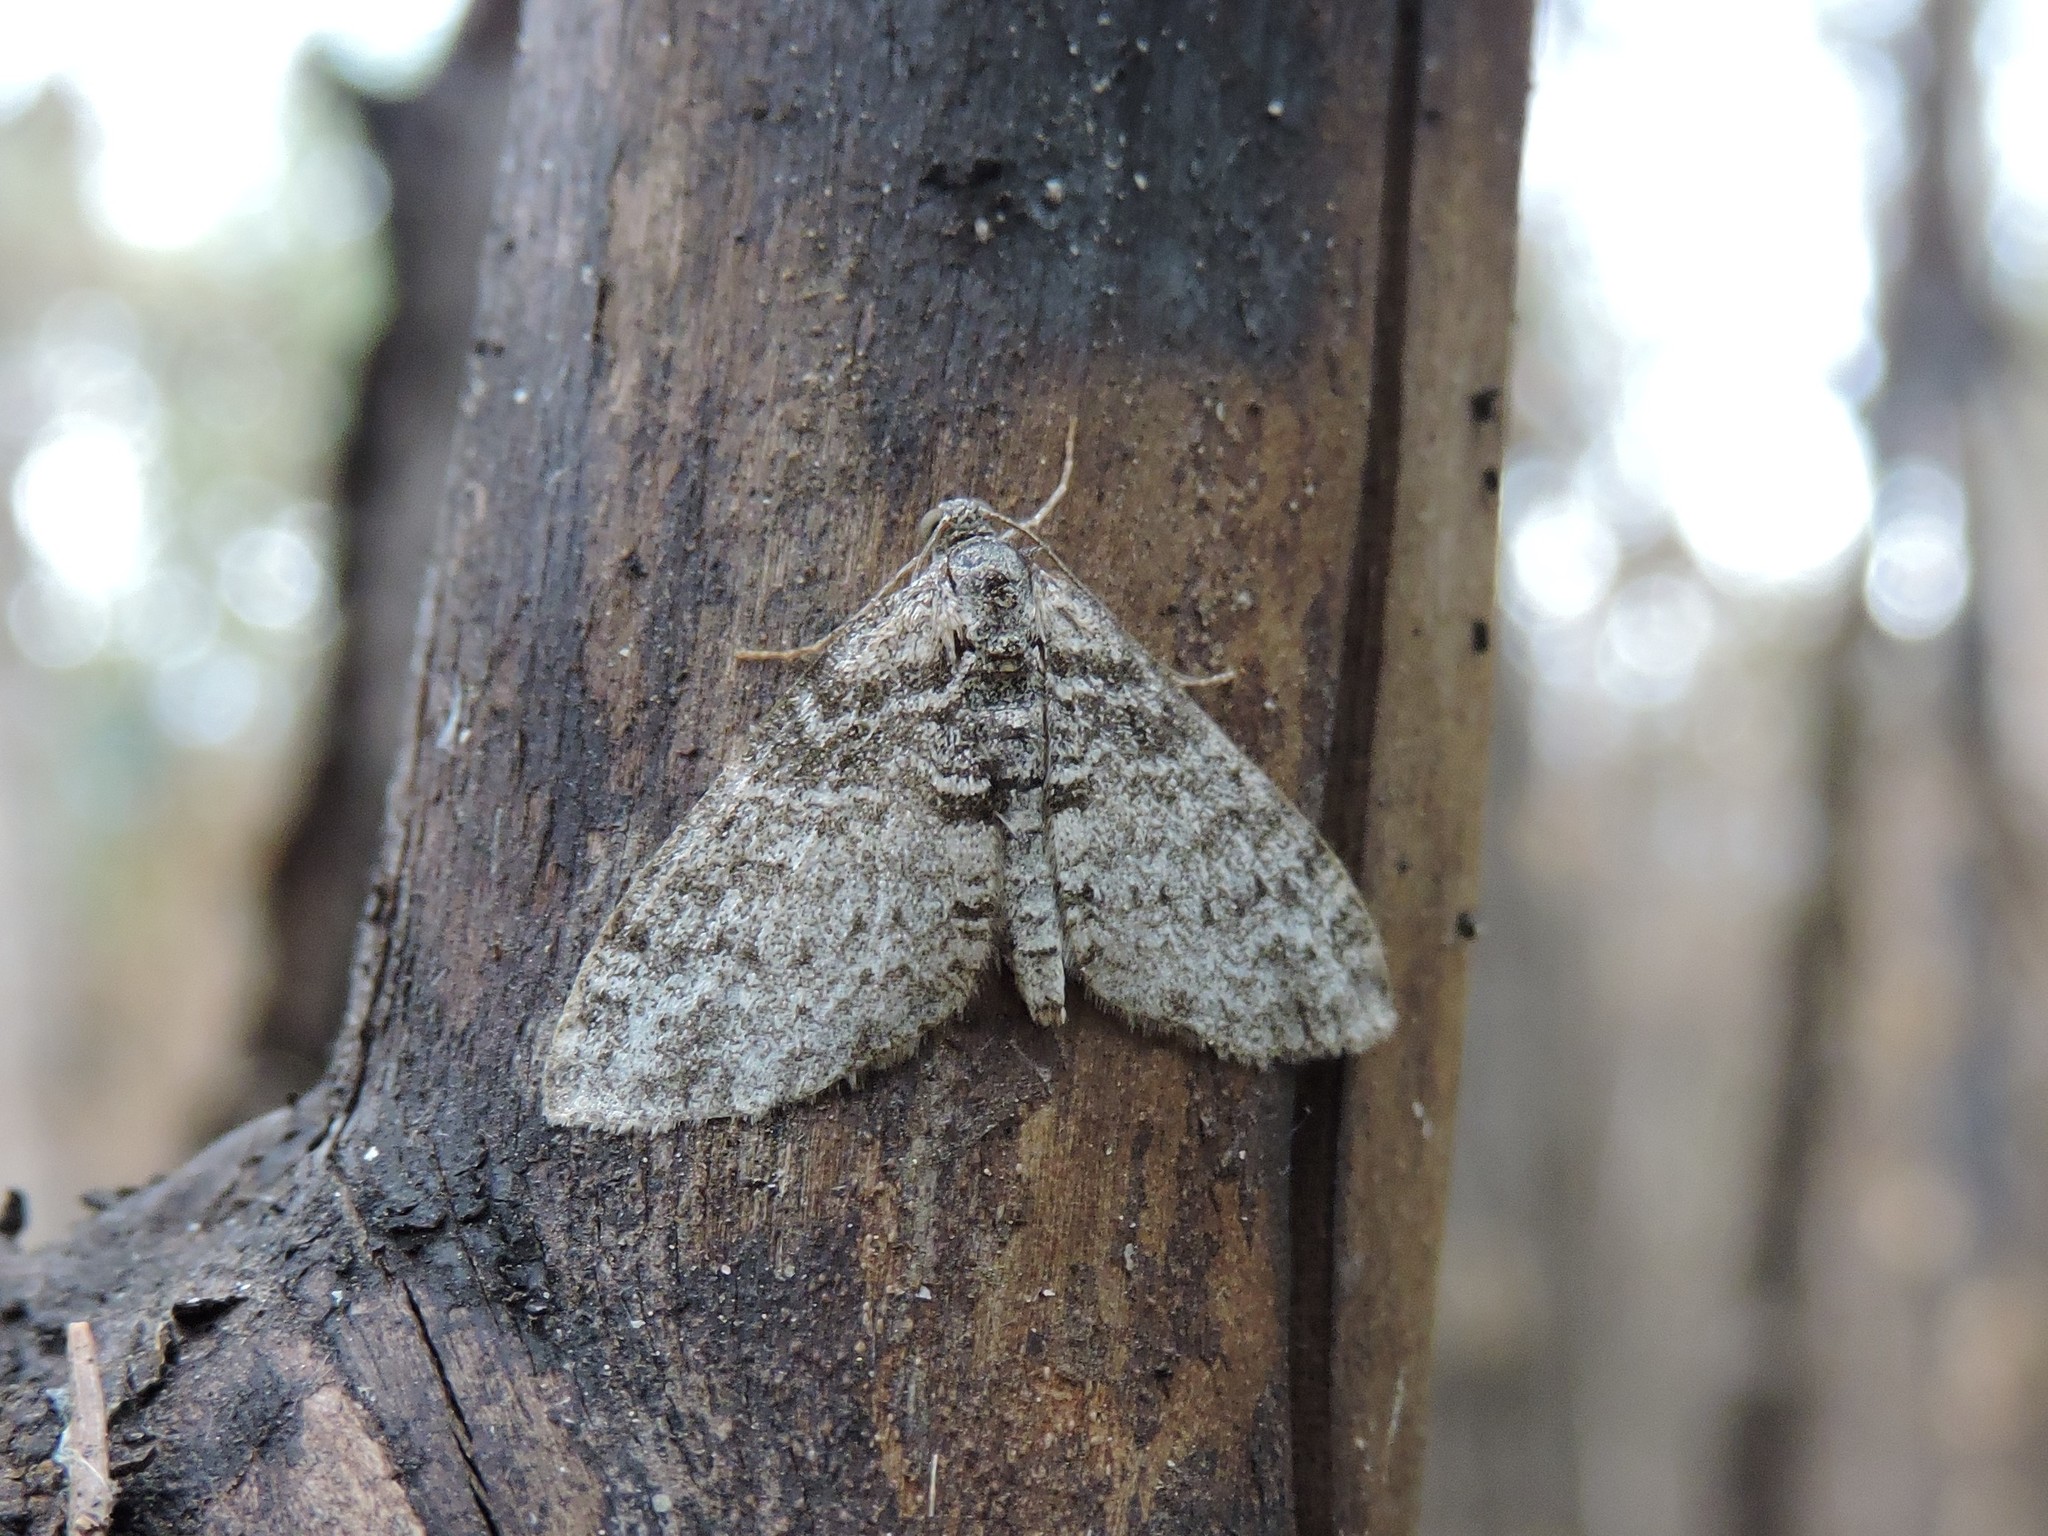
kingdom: Animalia
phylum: Arthropoda
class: Insecta
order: Lepidoptera
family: Geometridae
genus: Lobophora
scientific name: Lobophora halterata
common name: Seraphim
